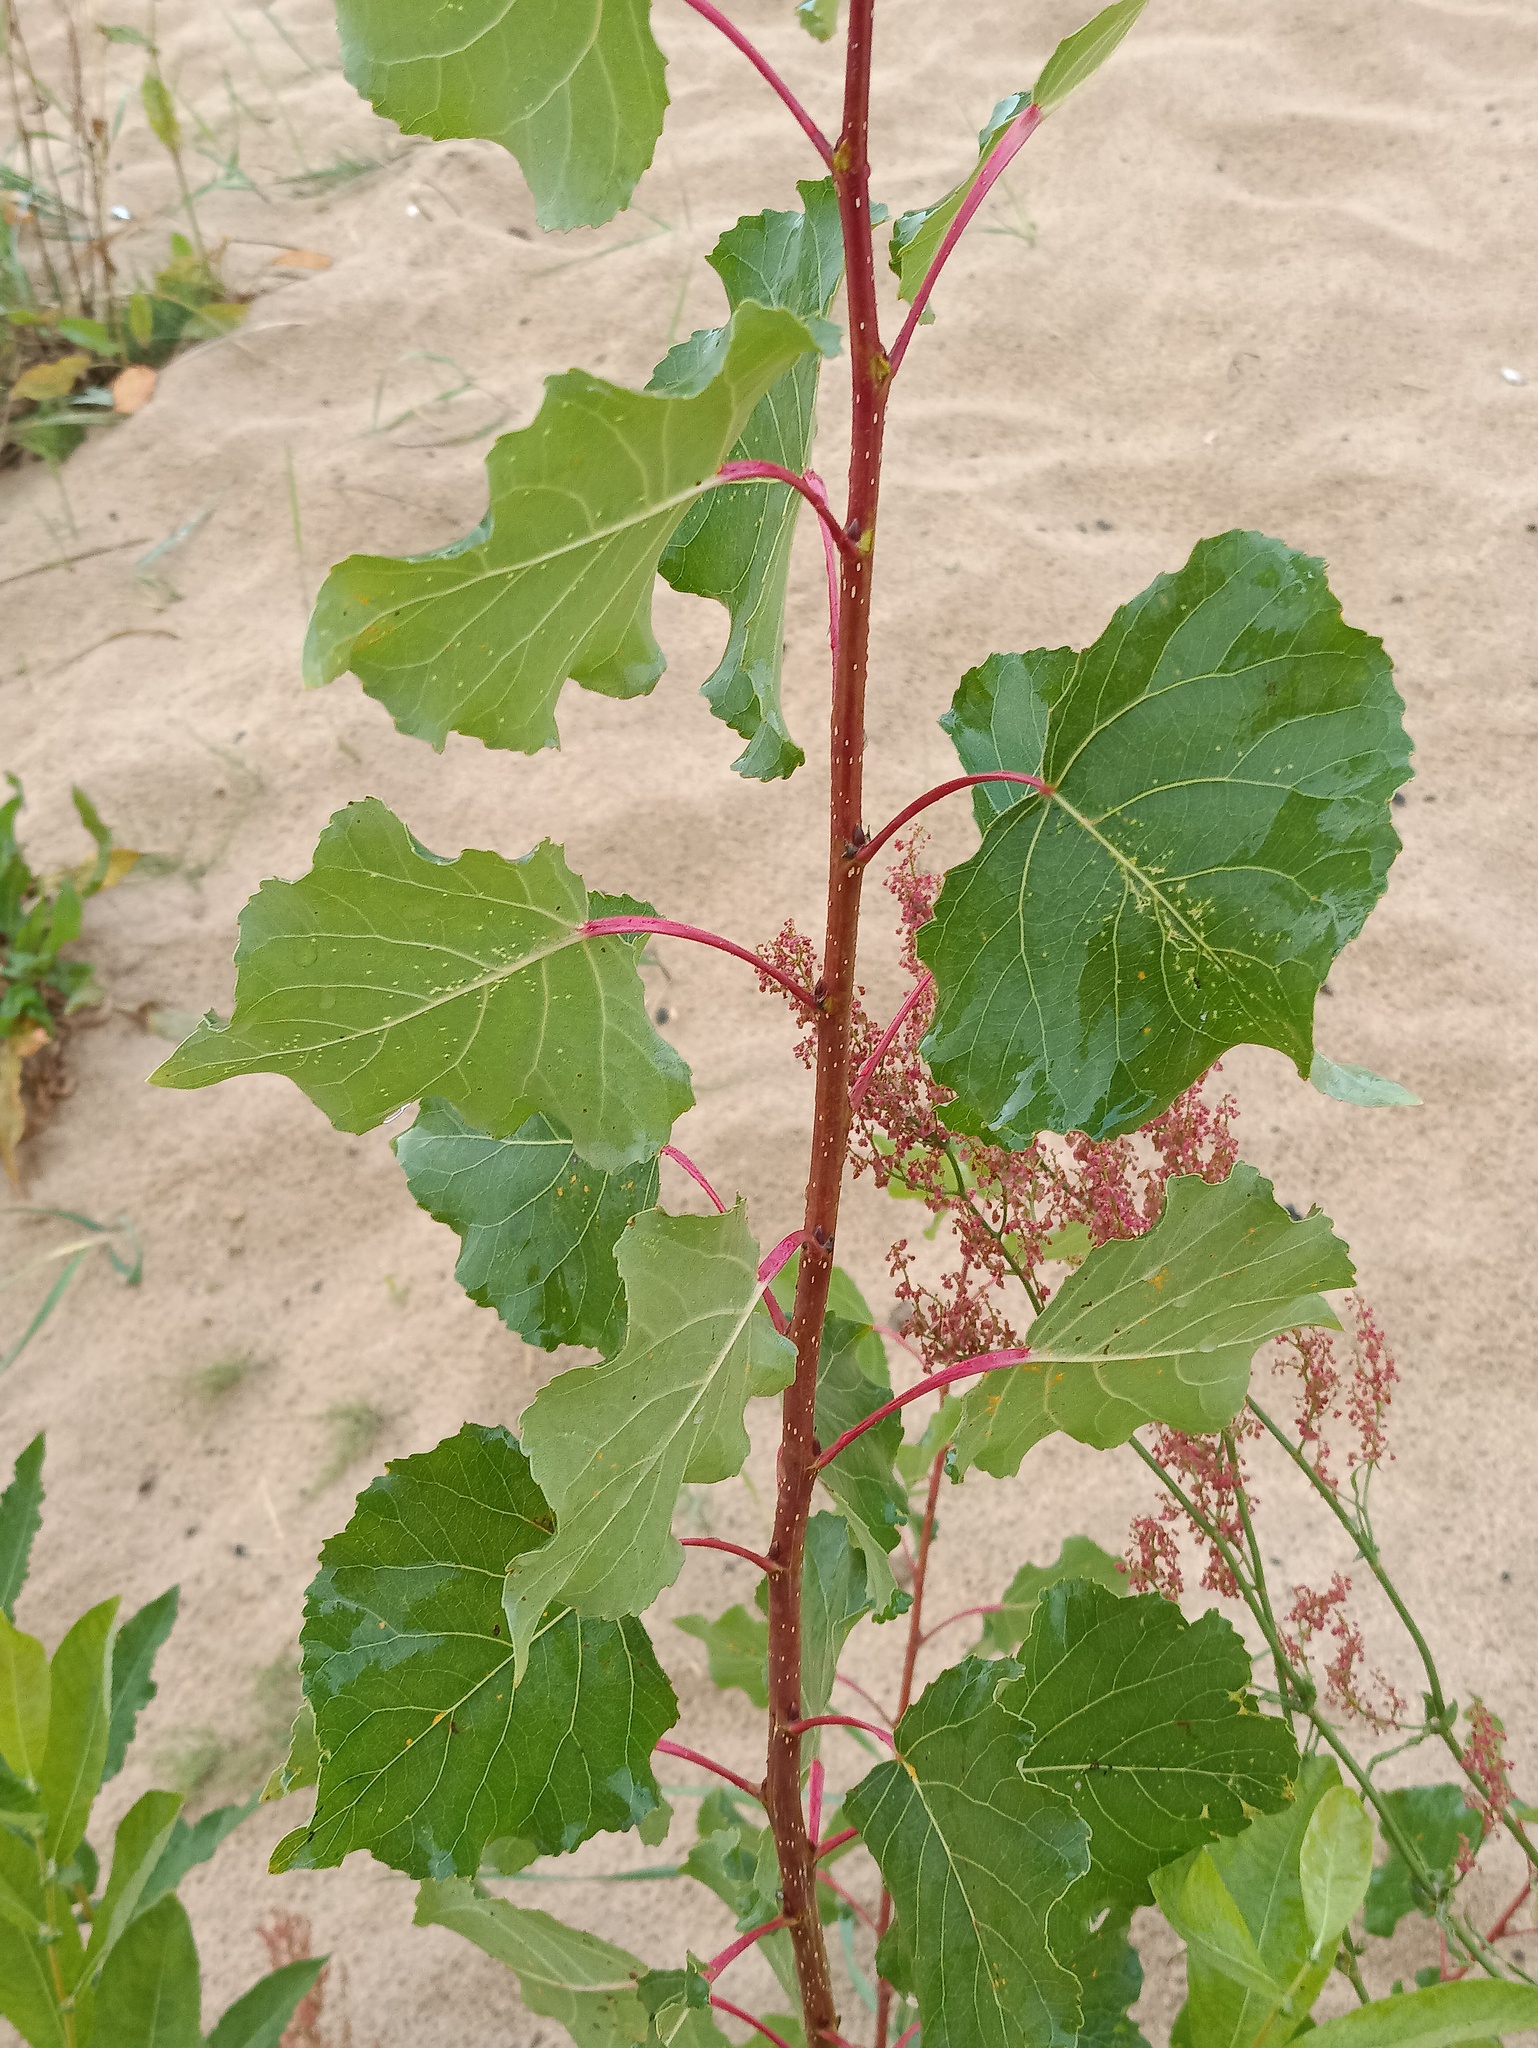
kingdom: Plantae
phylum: Tracheophyta
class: Magnoliopsida
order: Malpighiales
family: Salicaceae
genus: Populus
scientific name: Populus nigra
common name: Black poplar
